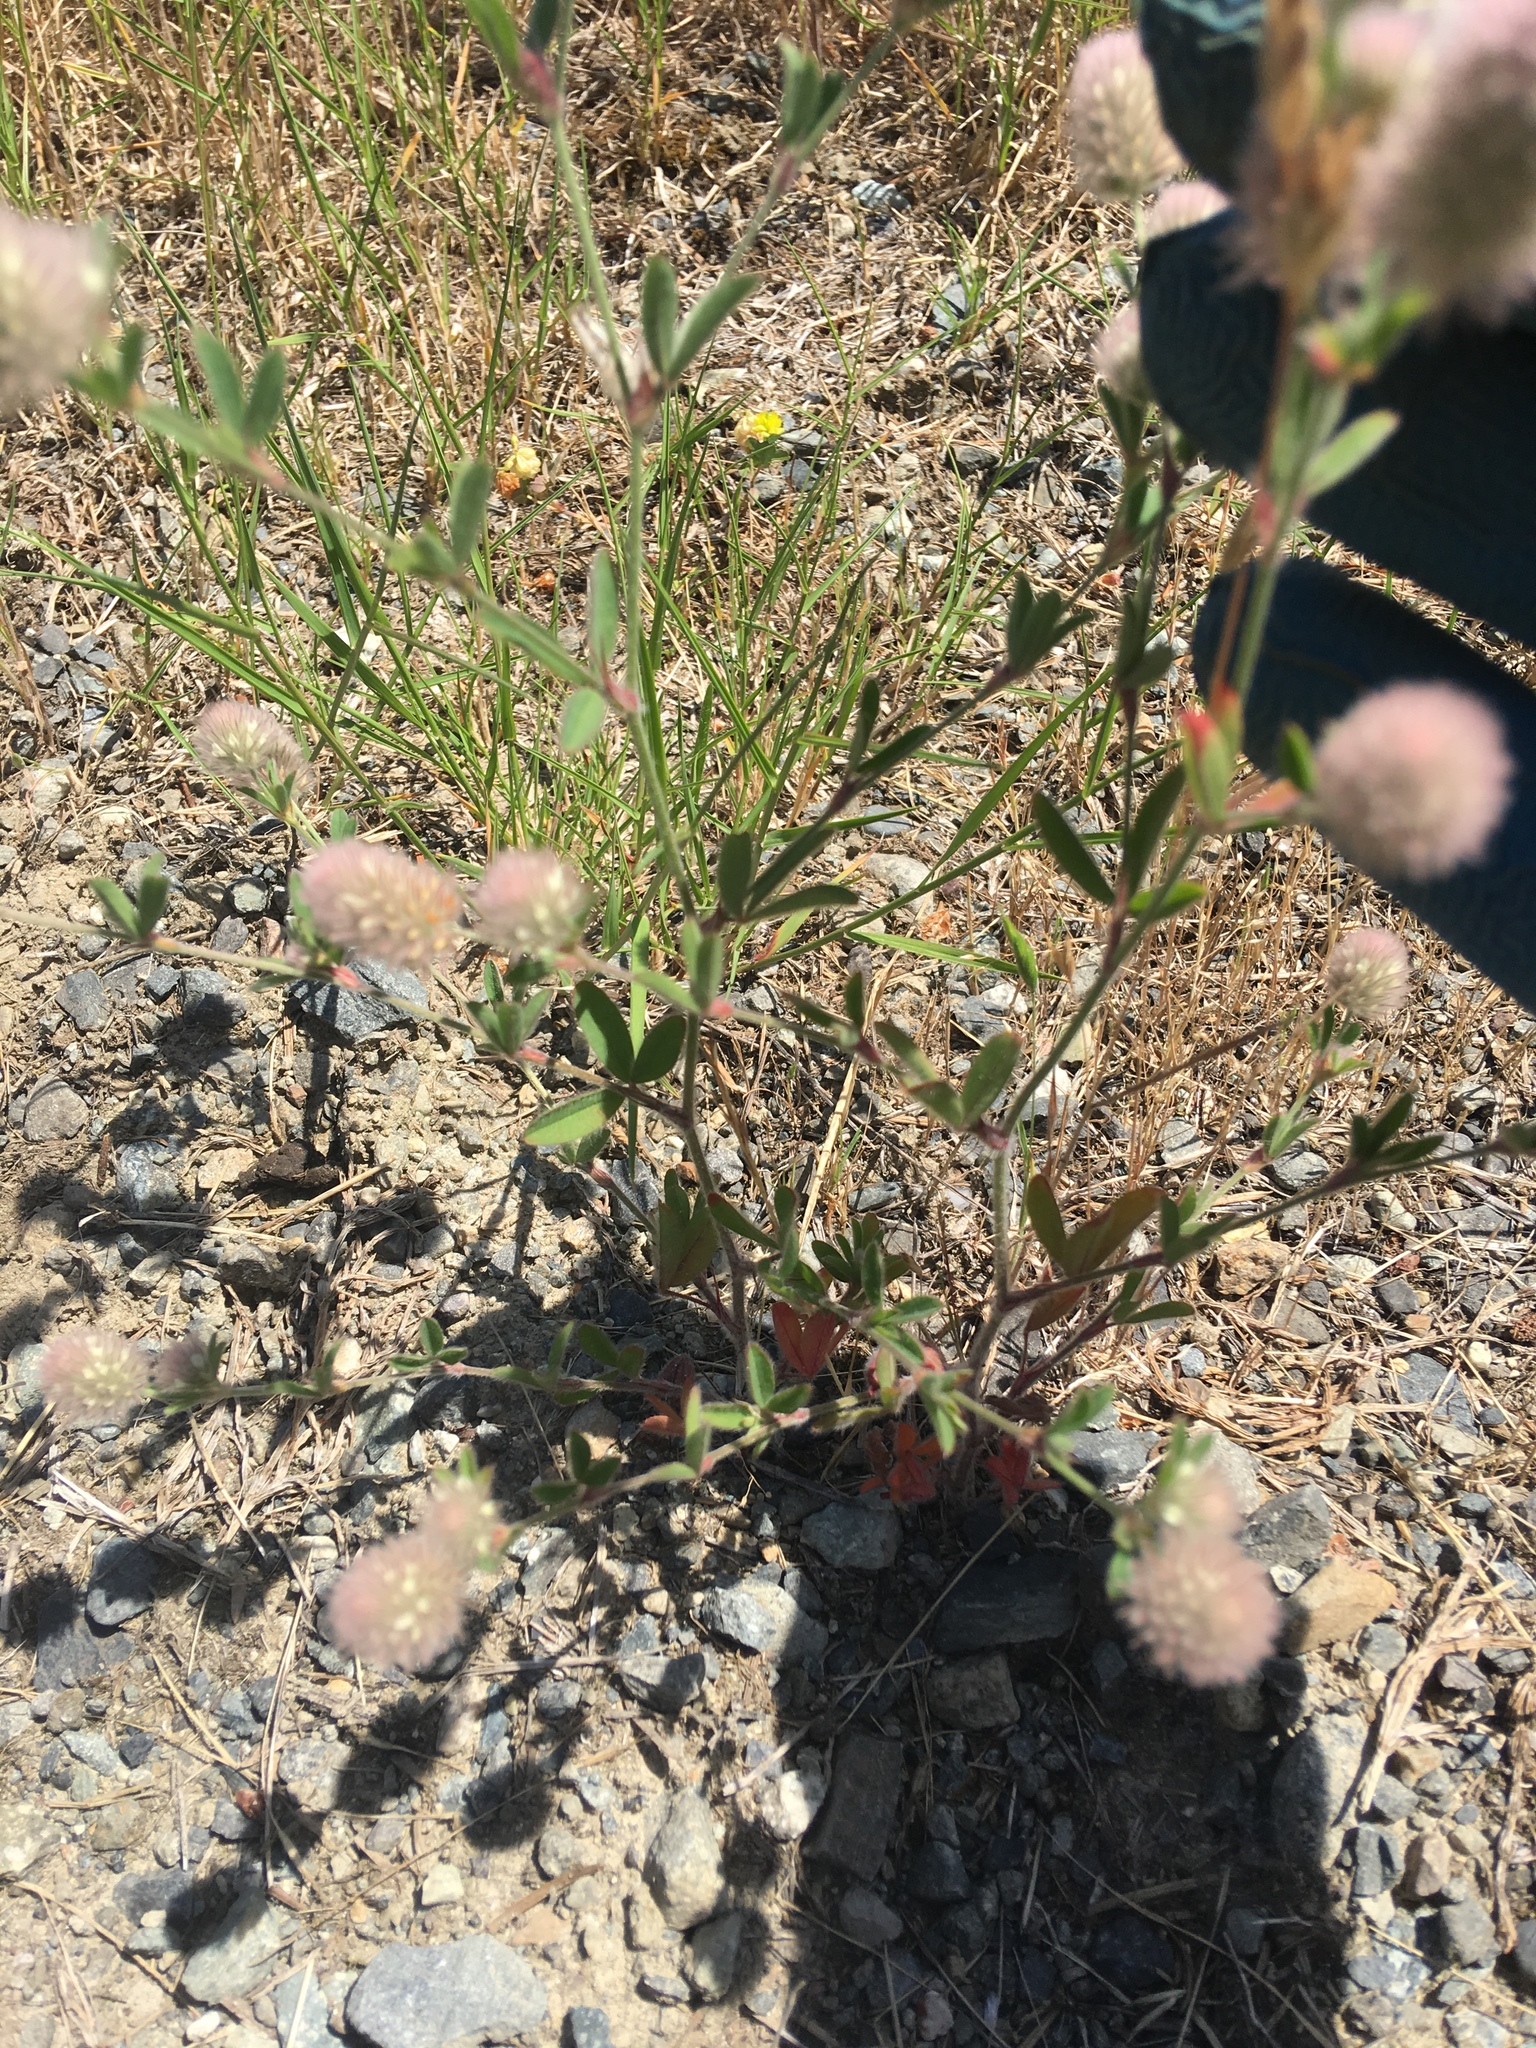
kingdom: Plantae
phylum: Tracheophyta
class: Magnoliopsida
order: Fabales
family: Fabaceae
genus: Trifolium
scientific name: Trifolium arvense
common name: Hare's-foot clover
